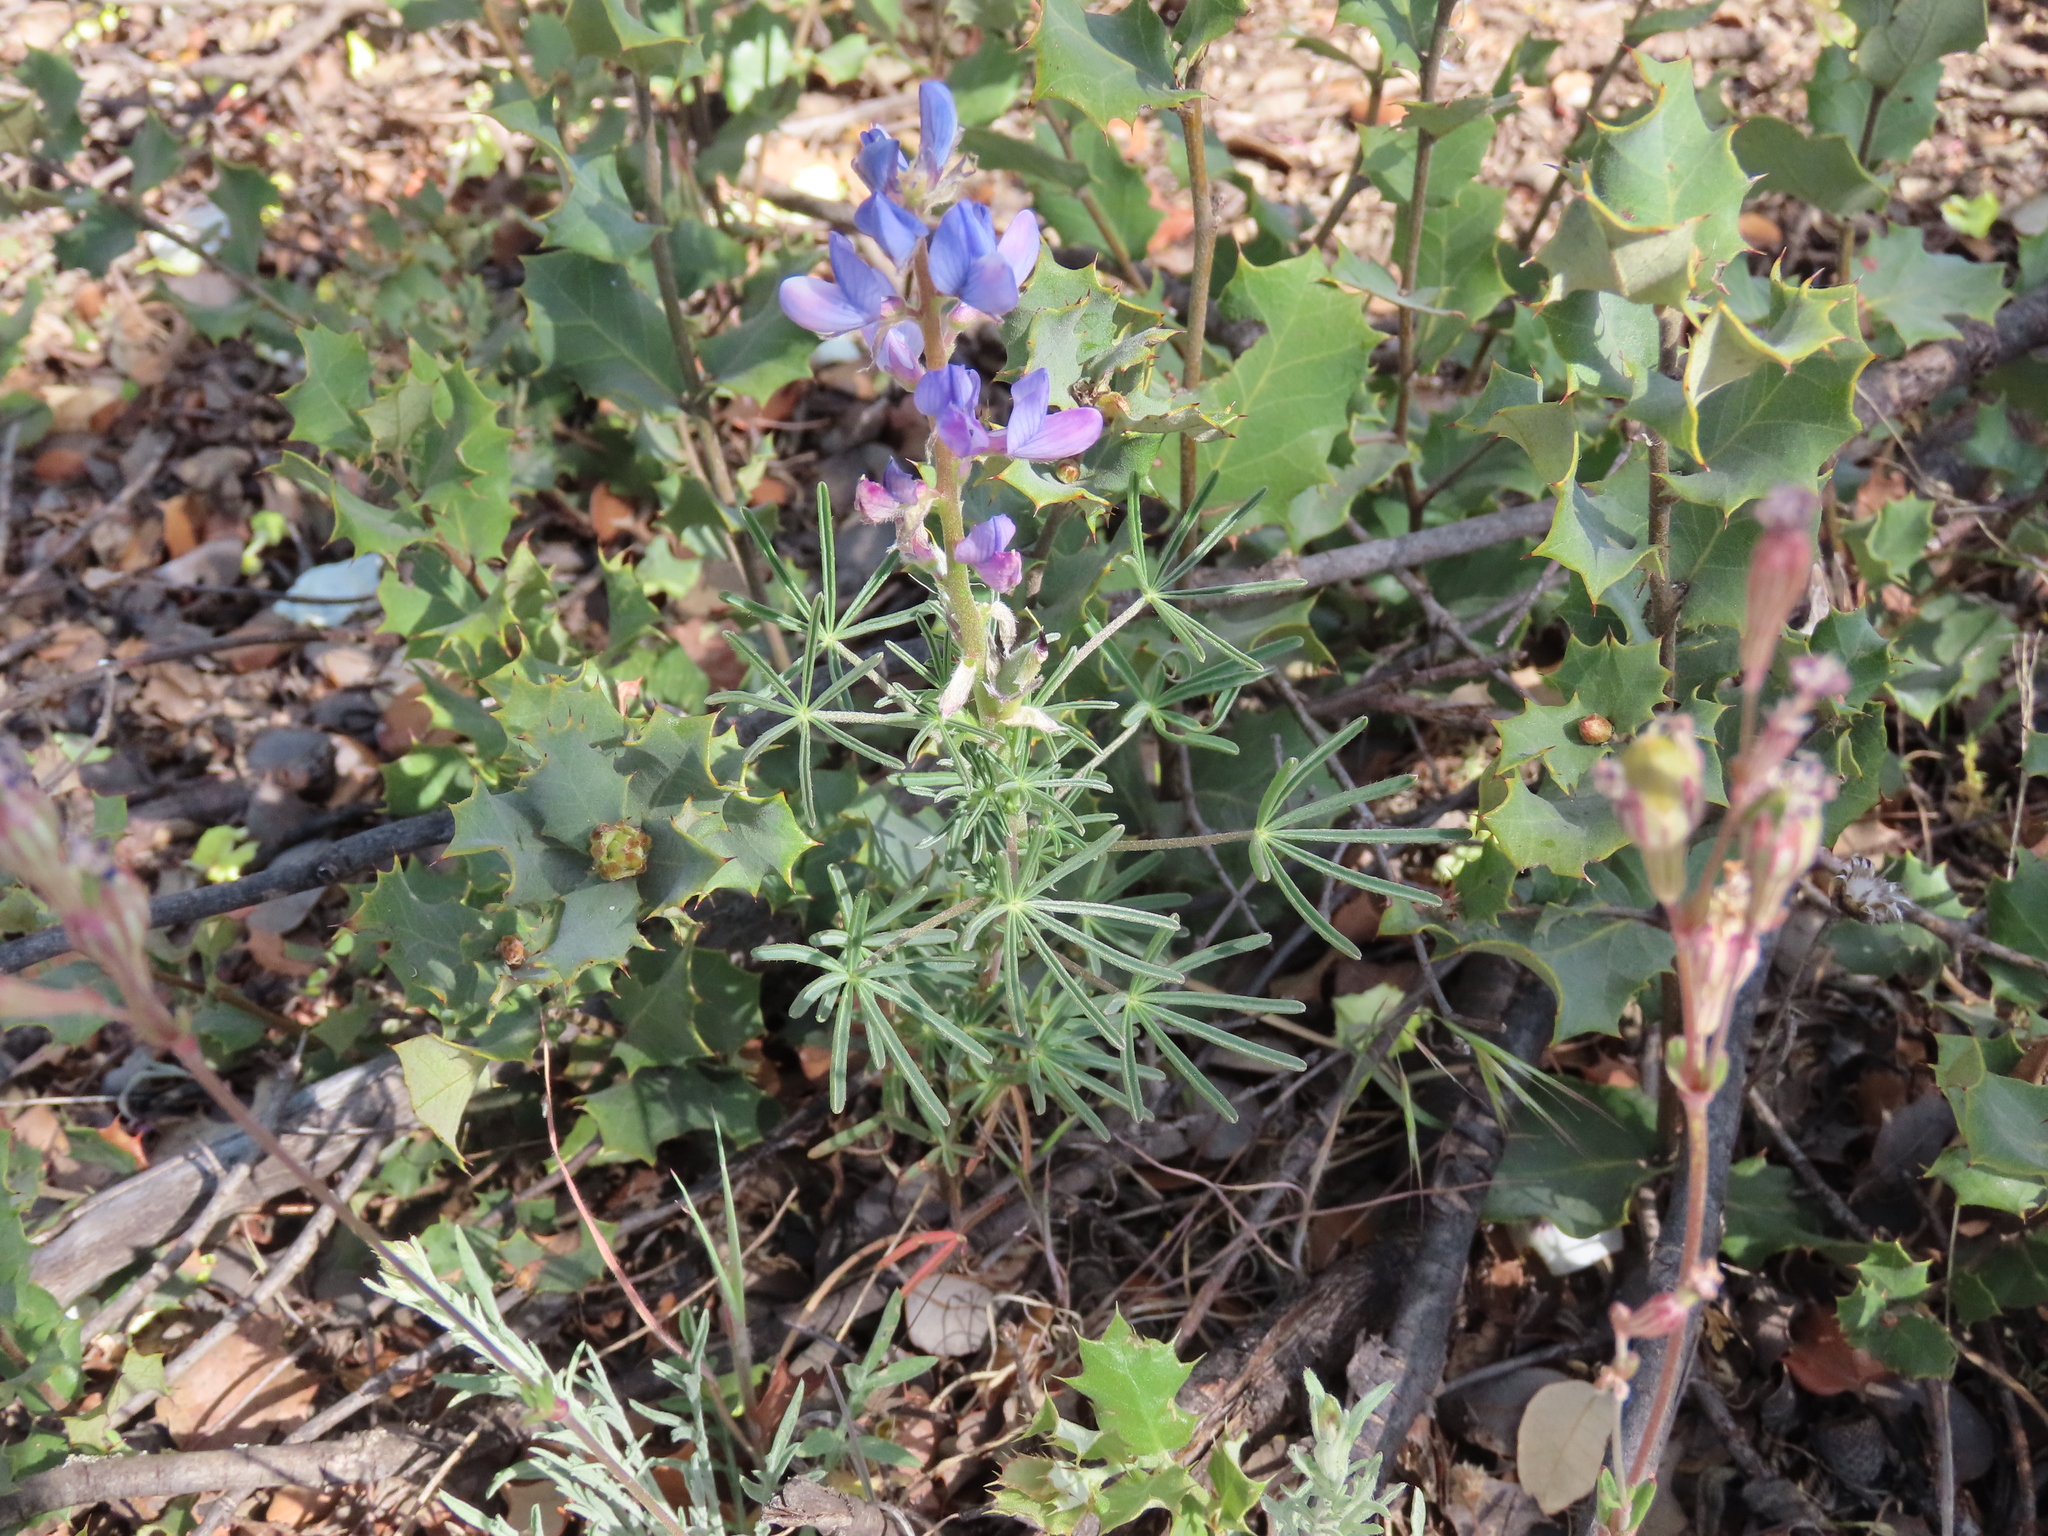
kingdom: Plantae
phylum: Tracheophyta
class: Magnoliopsida
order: Fabales
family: Fabaceae
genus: Lupinus
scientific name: Lupinus angustifolius
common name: Narrow-leaved lupin
